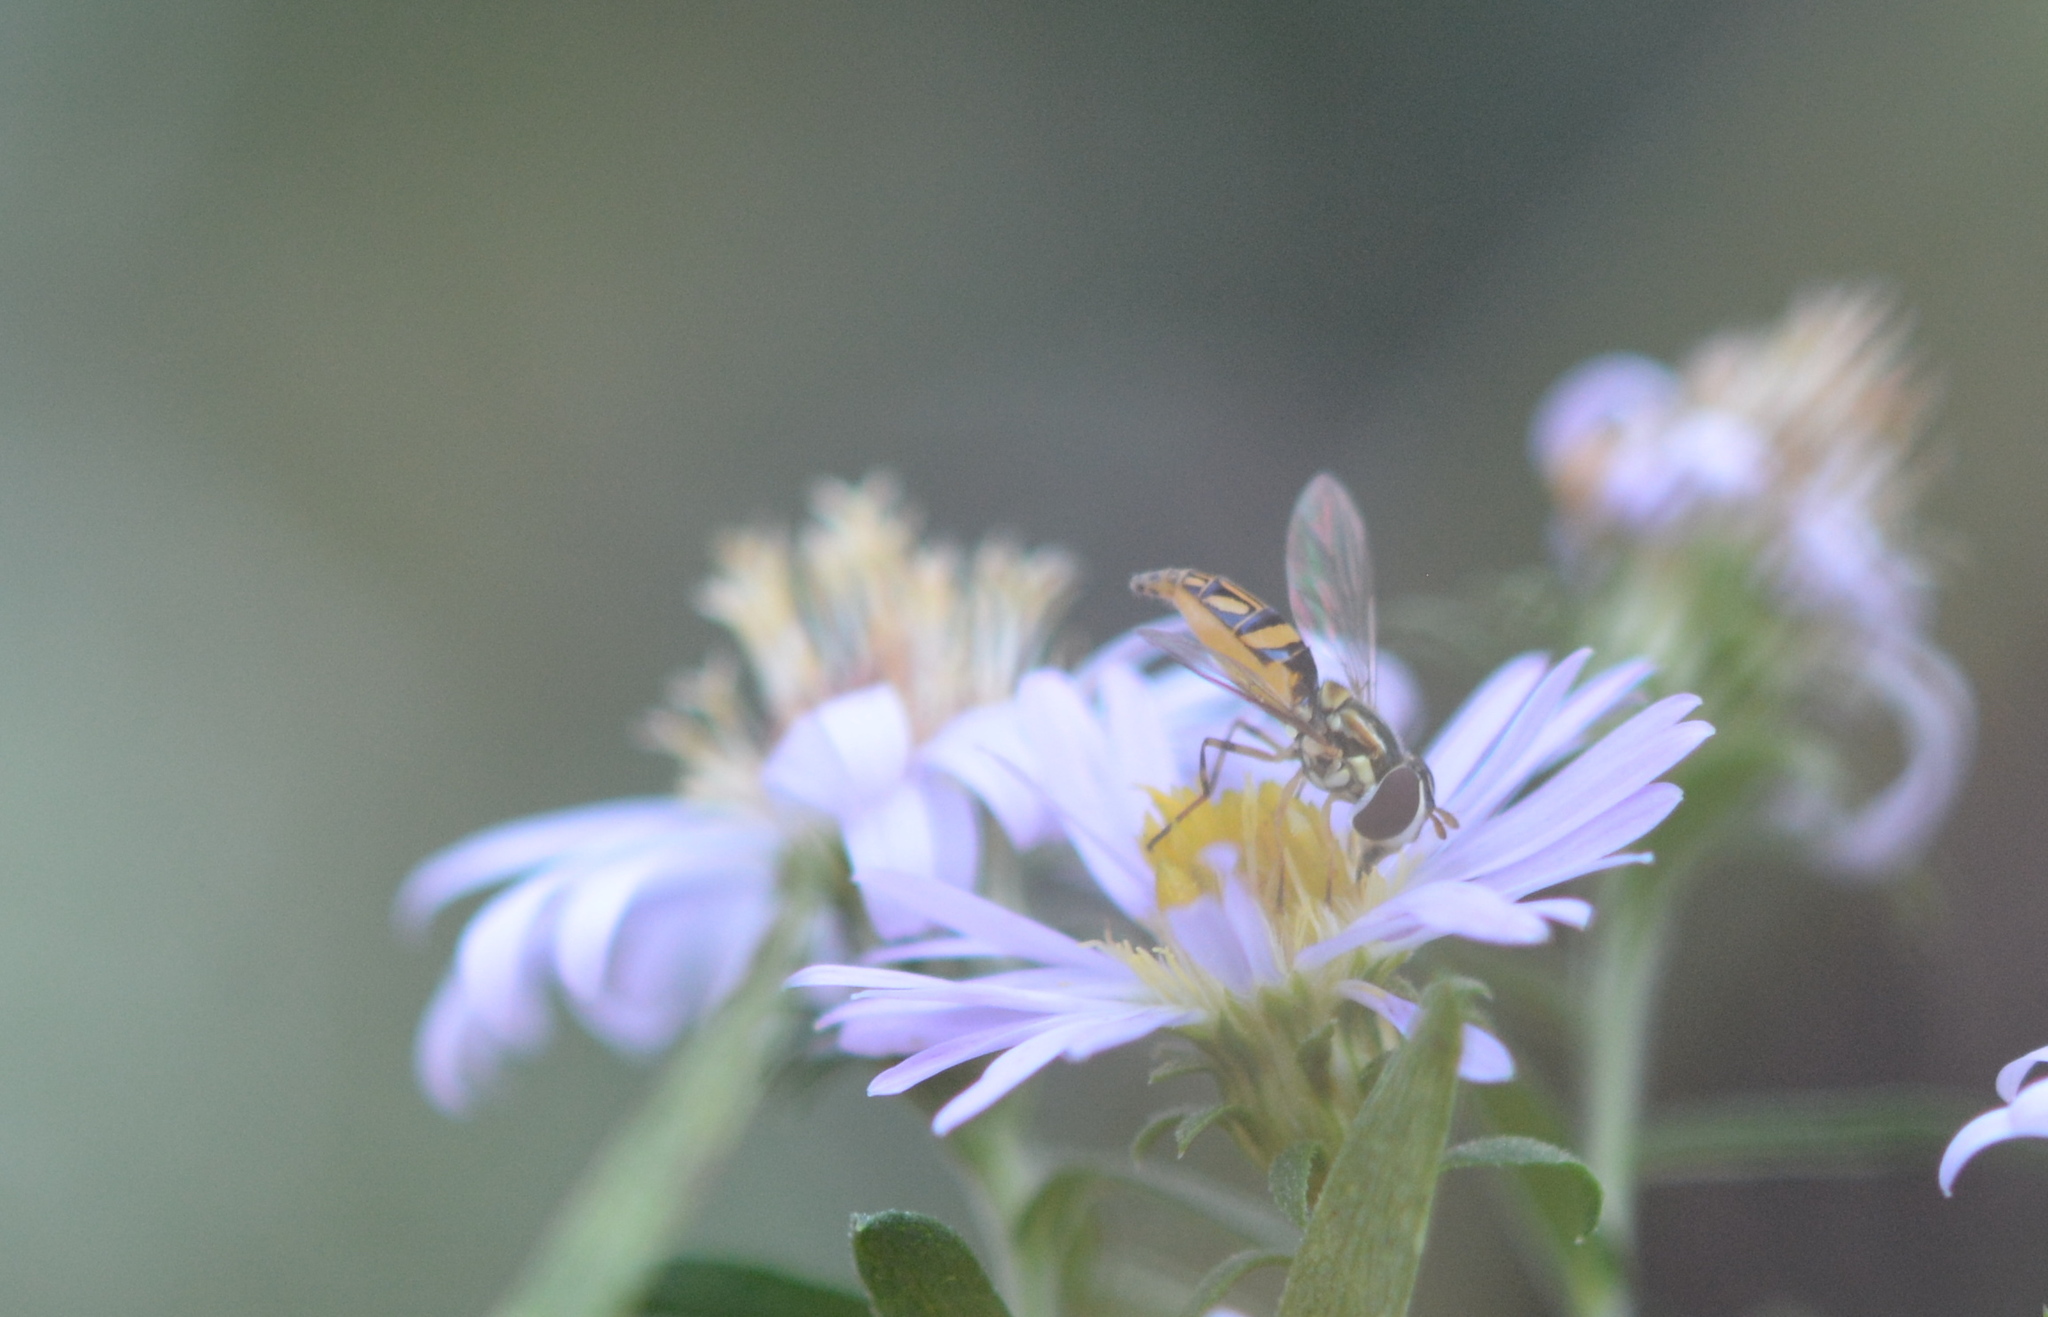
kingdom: Animalia
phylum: Arthropoda
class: Insecta
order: Diptera
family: Syrphidae
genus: Allograpta
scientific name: Allograpta obliqua
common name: Common oblique syrphid
